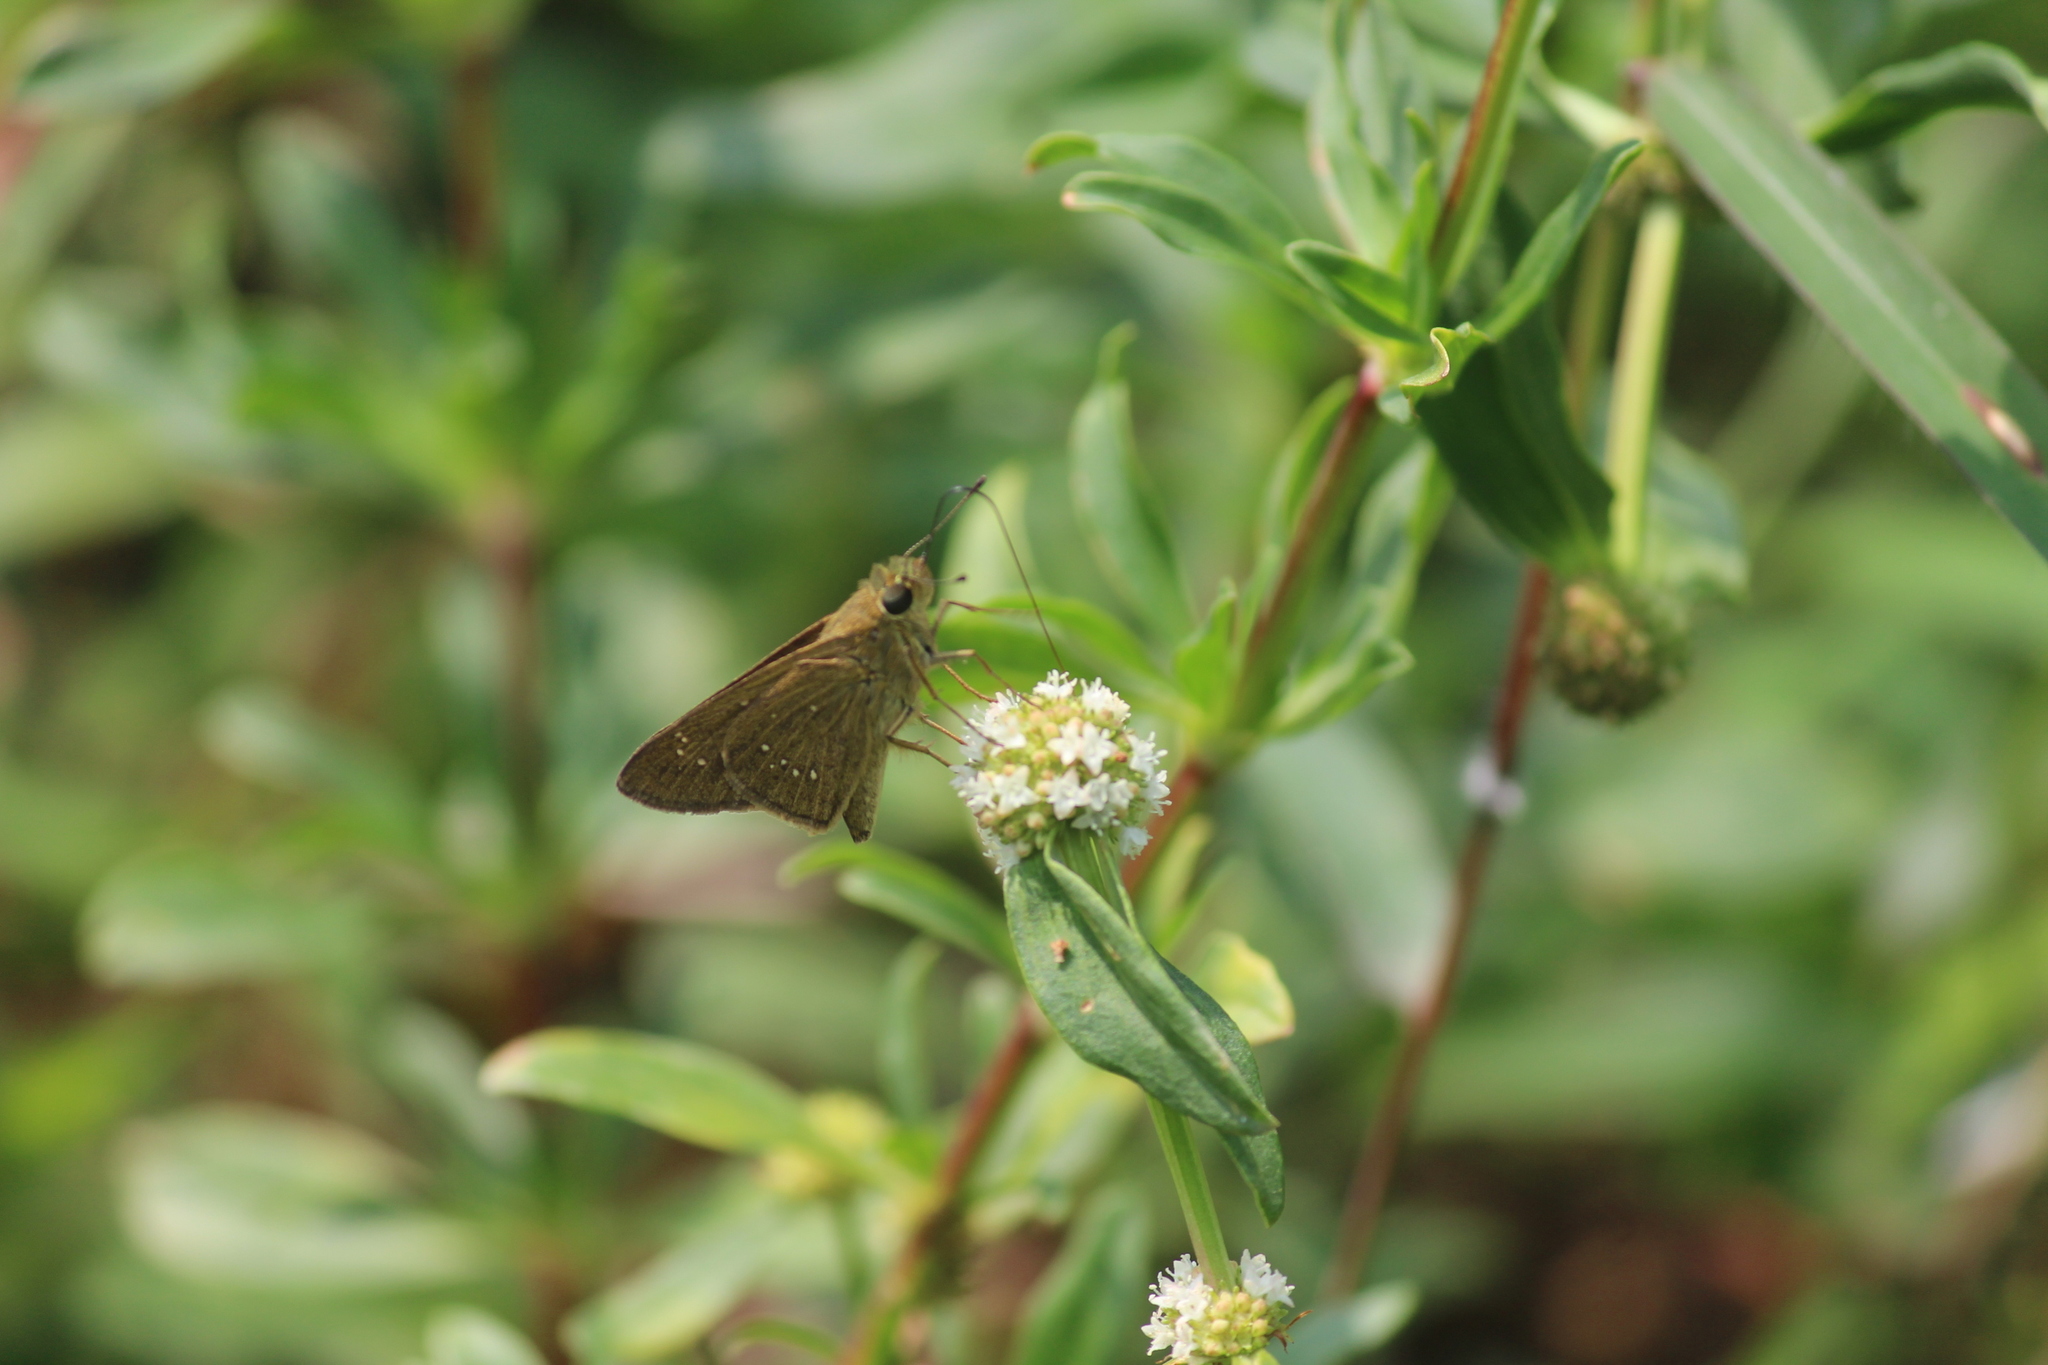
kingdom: Animalia
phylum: Arthropoda
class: Insecta
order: Lepidoptera
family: Hesperiidae
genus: Pelopidas
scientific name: Pelopidas
